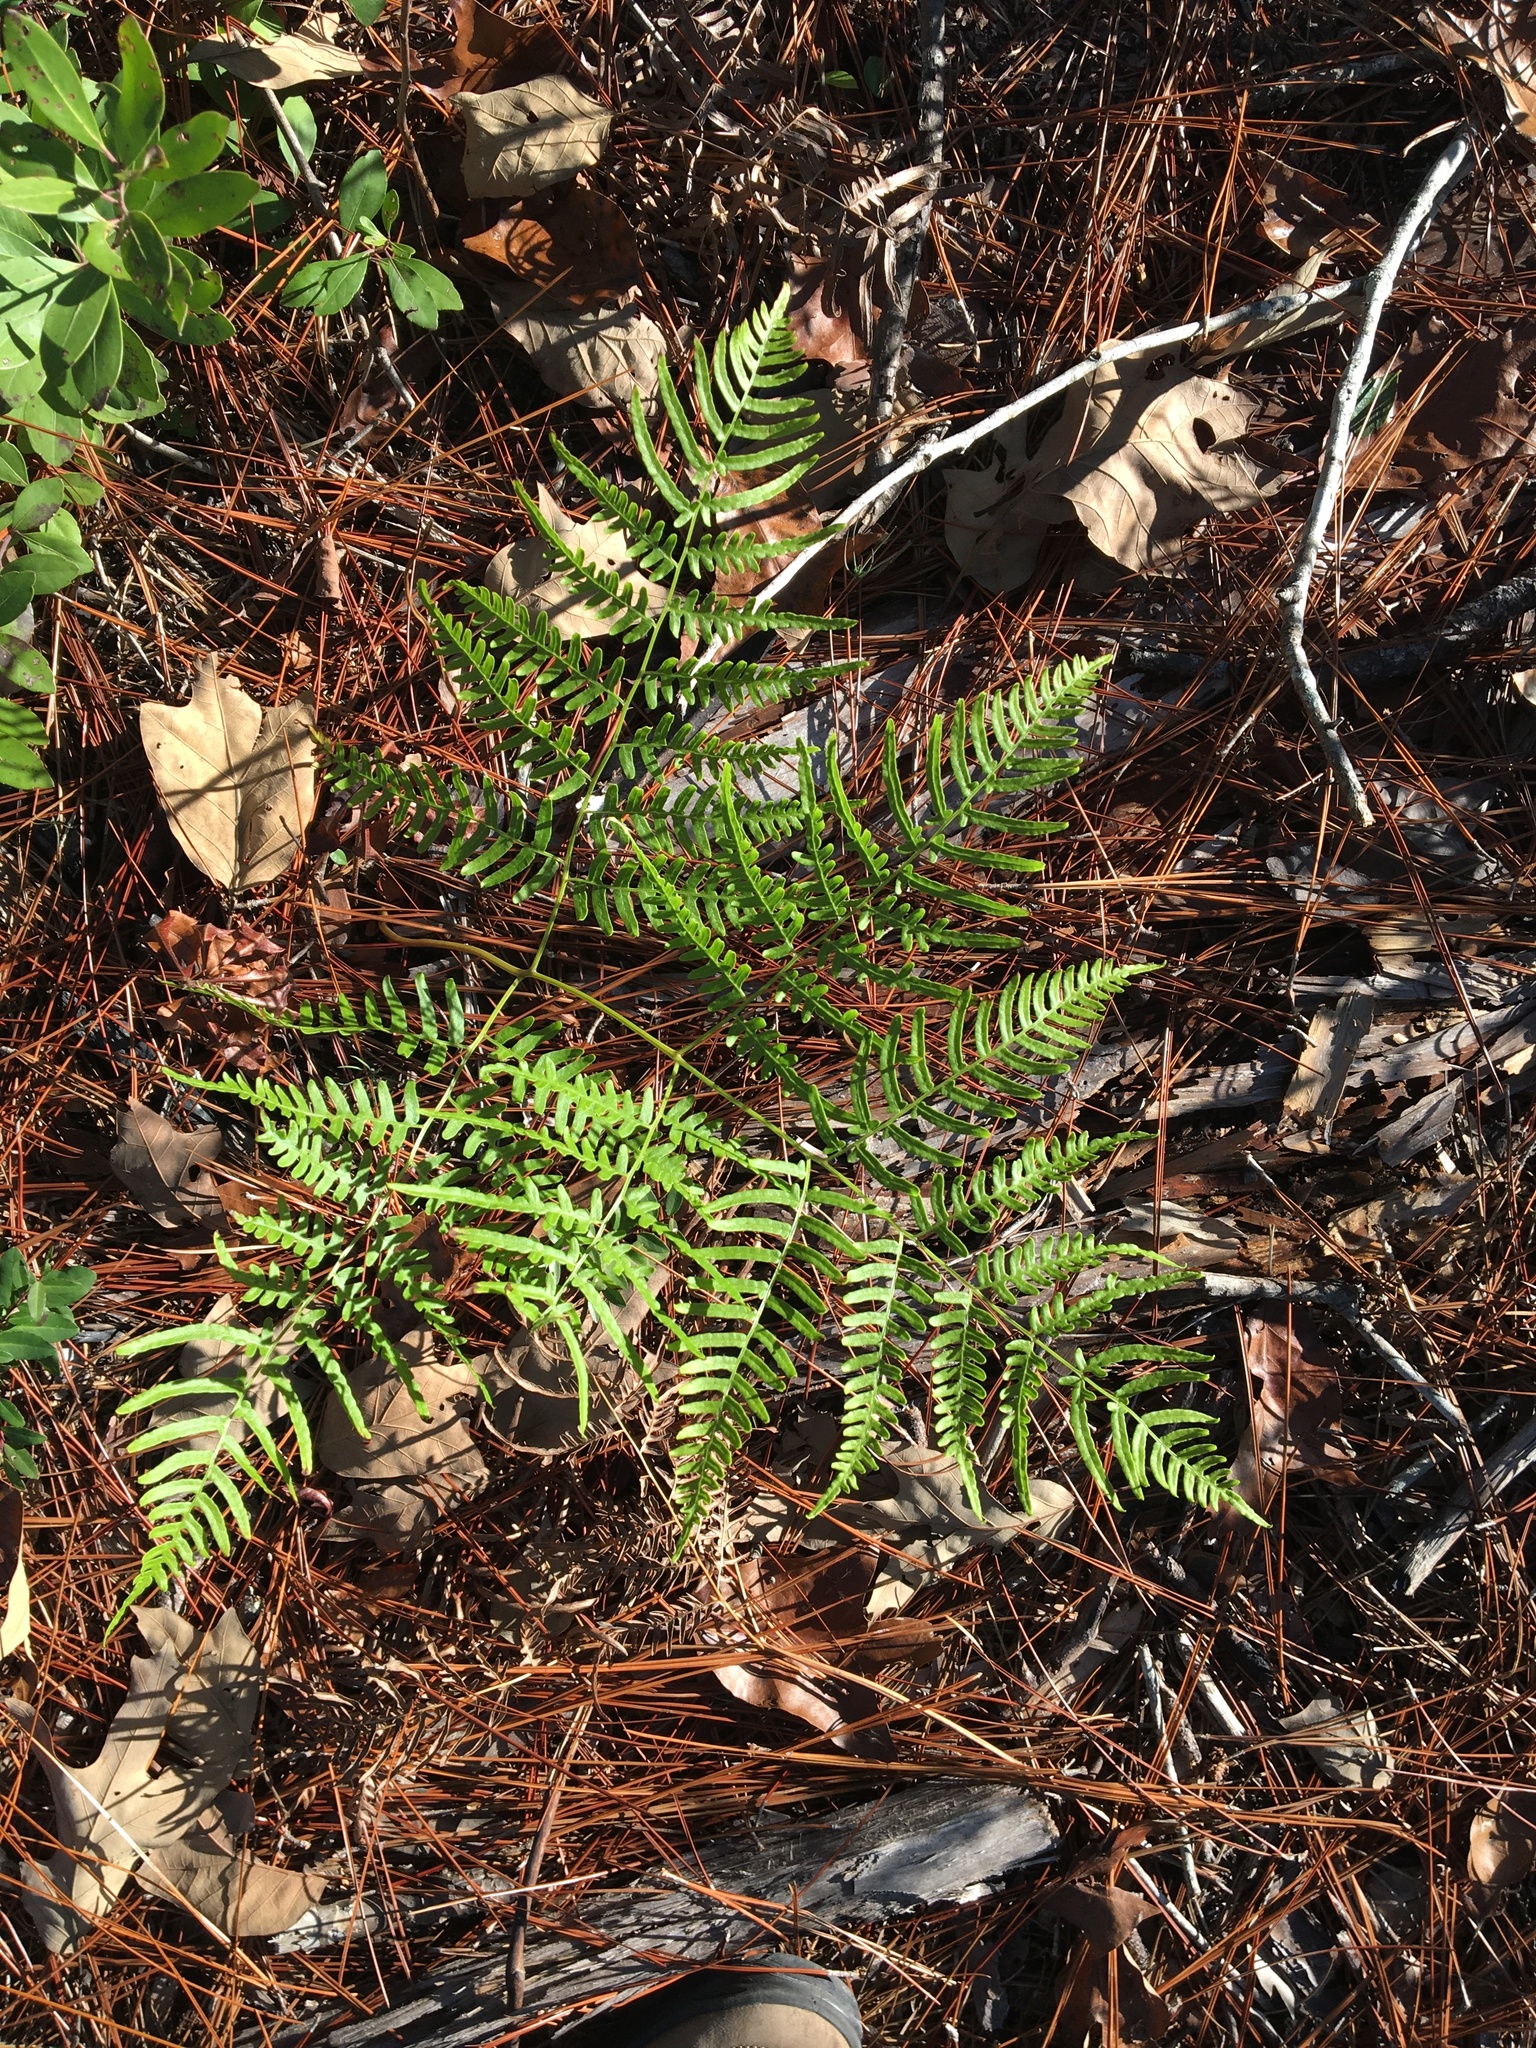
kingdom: Plantae
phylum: Tracheophyta
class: Polypodiopsida
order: Polypodiales
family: Dennstaedtiaceae
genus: Pteridium
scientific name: Pteridium aquilinum
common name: Bracken
